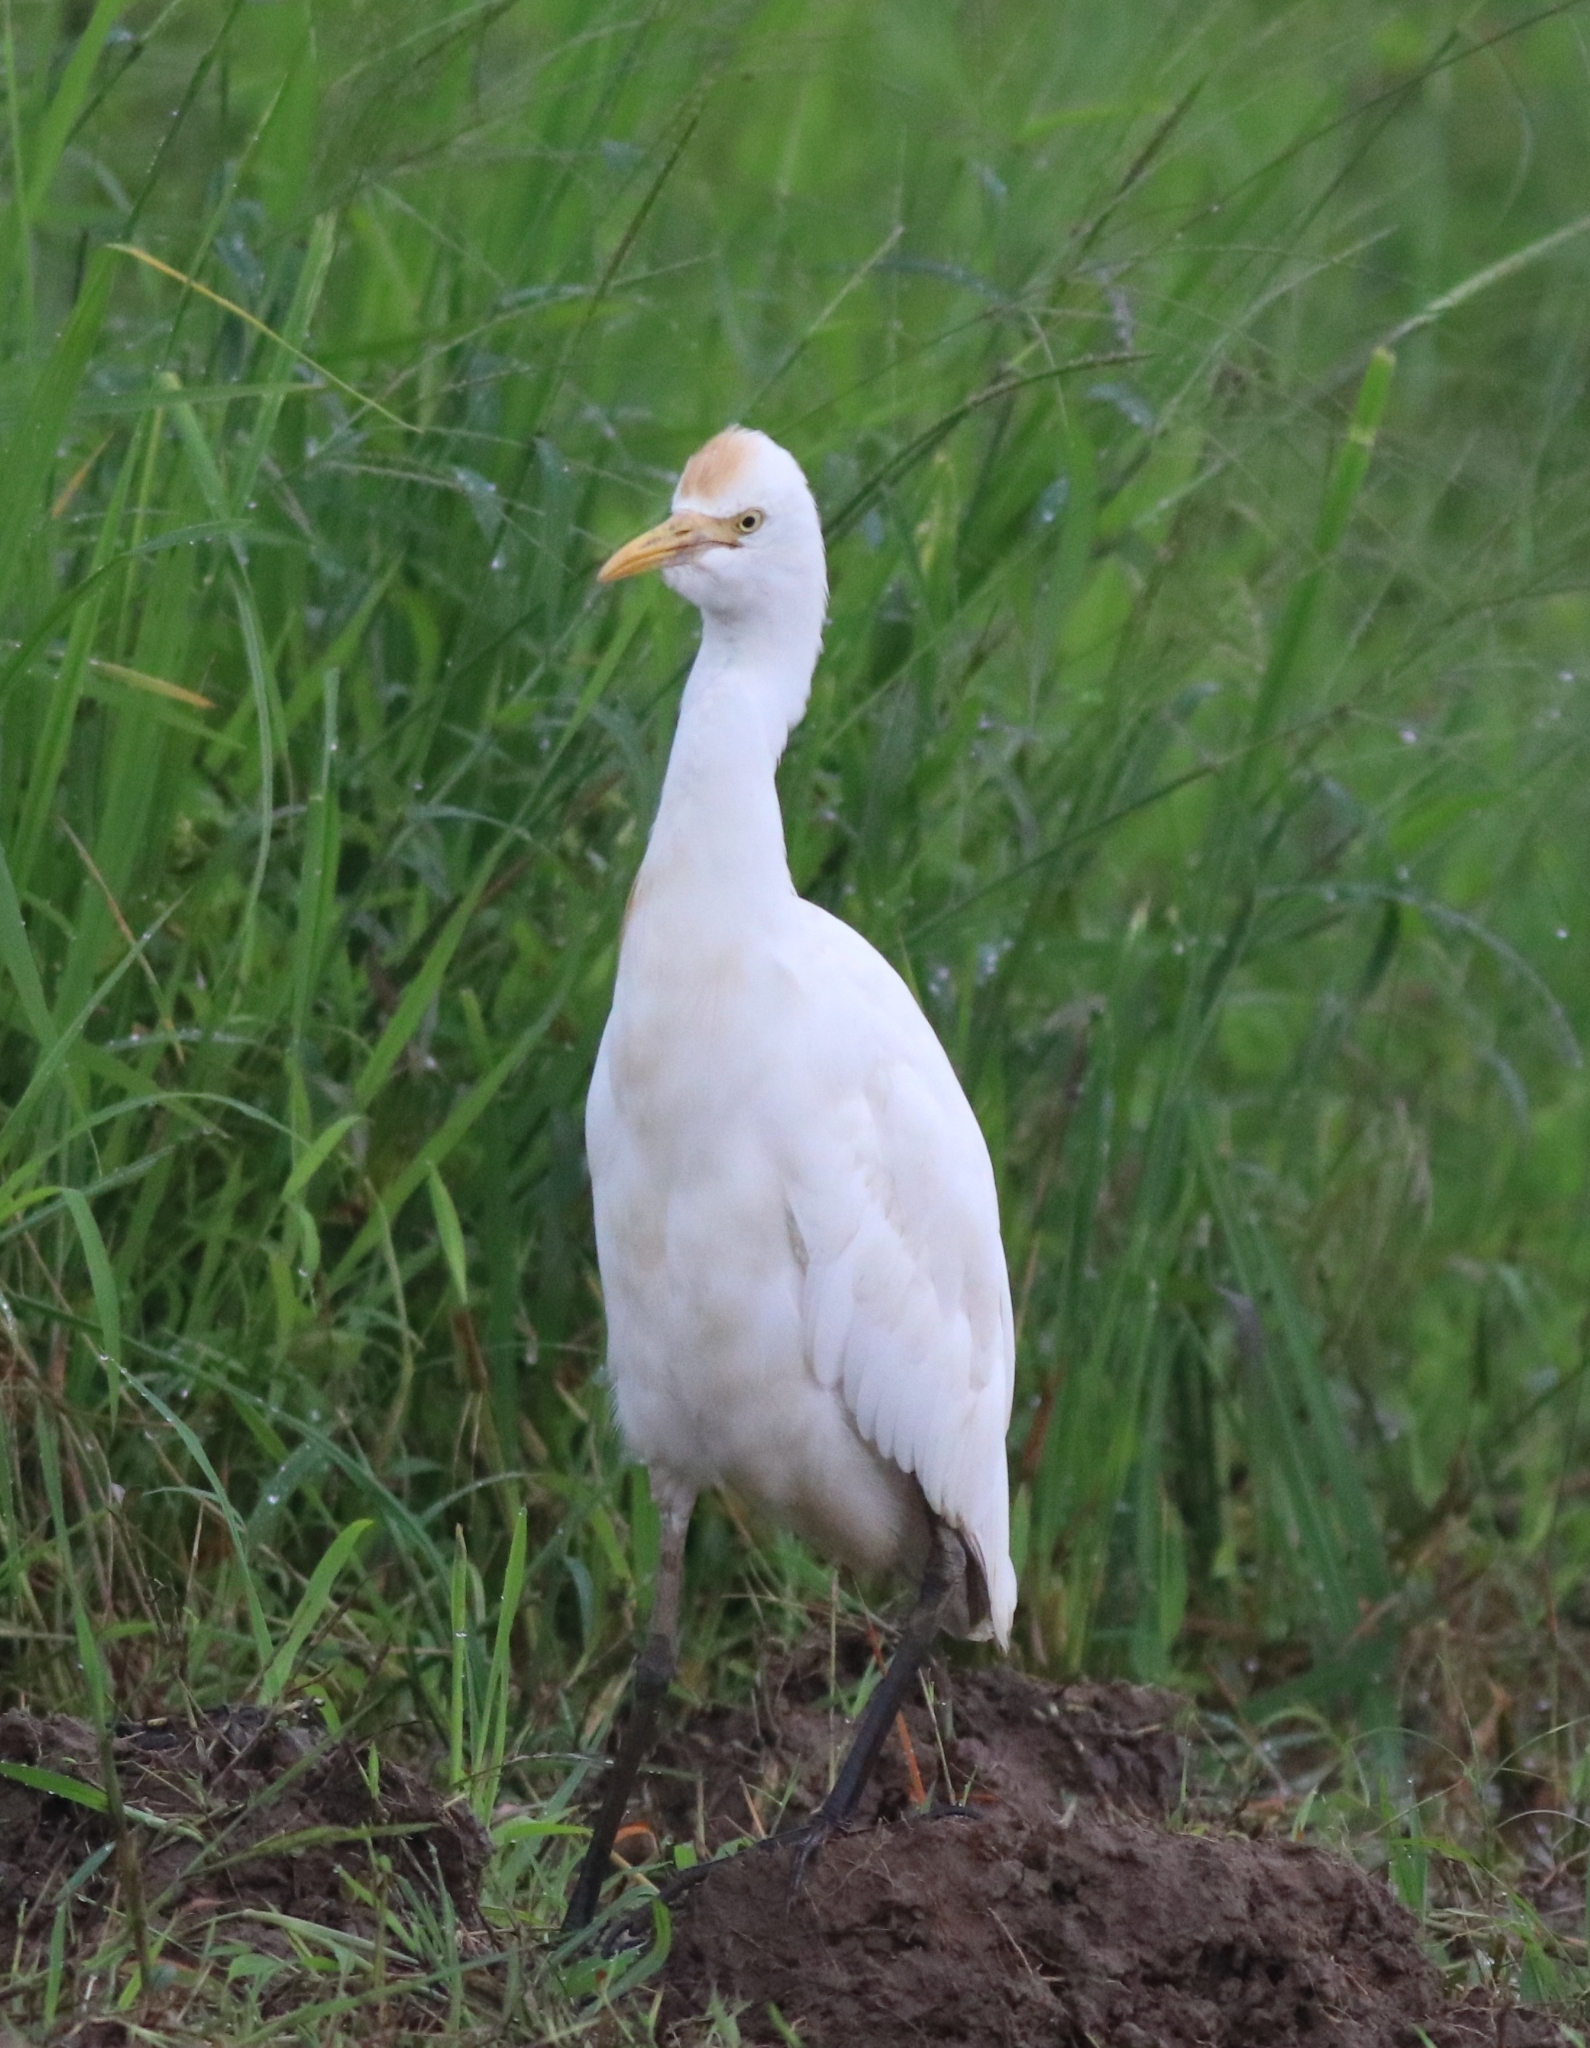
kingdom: Animalia
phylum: Chordata
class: Aves
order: Pelecaniformes
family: Ardeidae
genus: Bubulcus
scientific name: Bubulcus coromandus
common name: Eastern cattle egret
